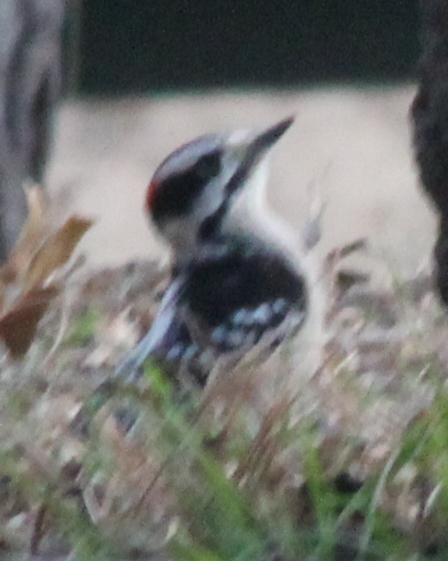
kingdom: Animalia
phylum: Chordata
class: Aves
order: Piciformes
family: Picidae
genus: Dryobates
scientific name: Dryobates pubescens
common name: Downy woodpecker
